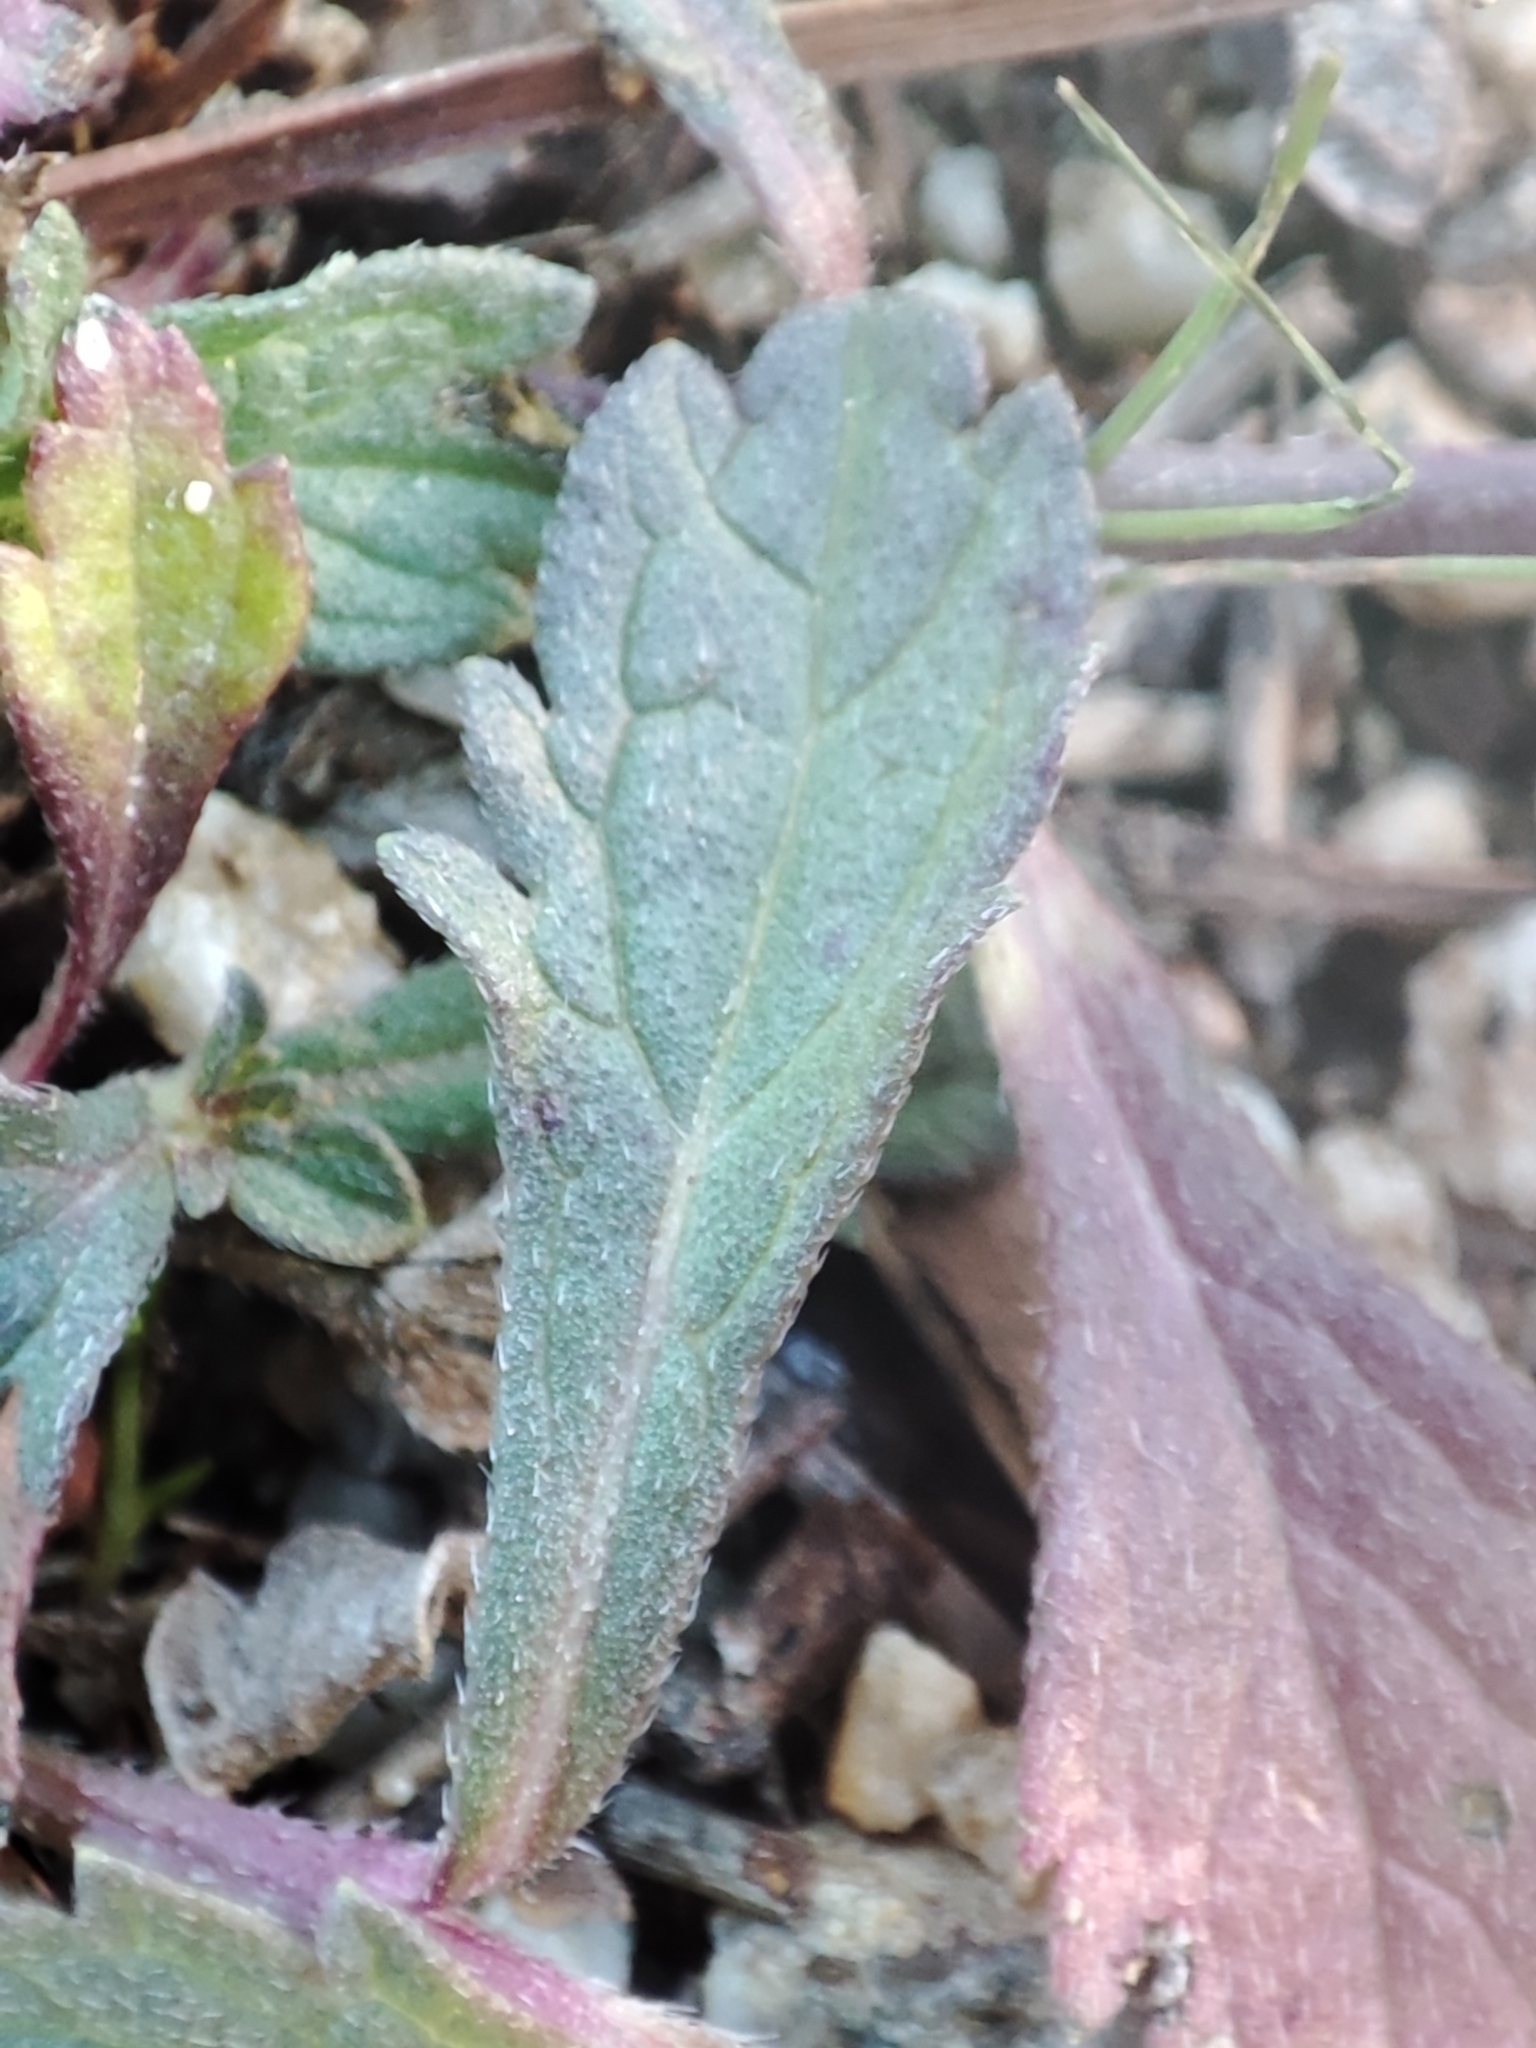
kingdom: Plantae
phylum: Tracheophyta
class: Magnoliopsida
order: Lamiales
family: Verbenaceae
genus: Verbena
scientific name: Verbena officinalis
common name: Vervain
